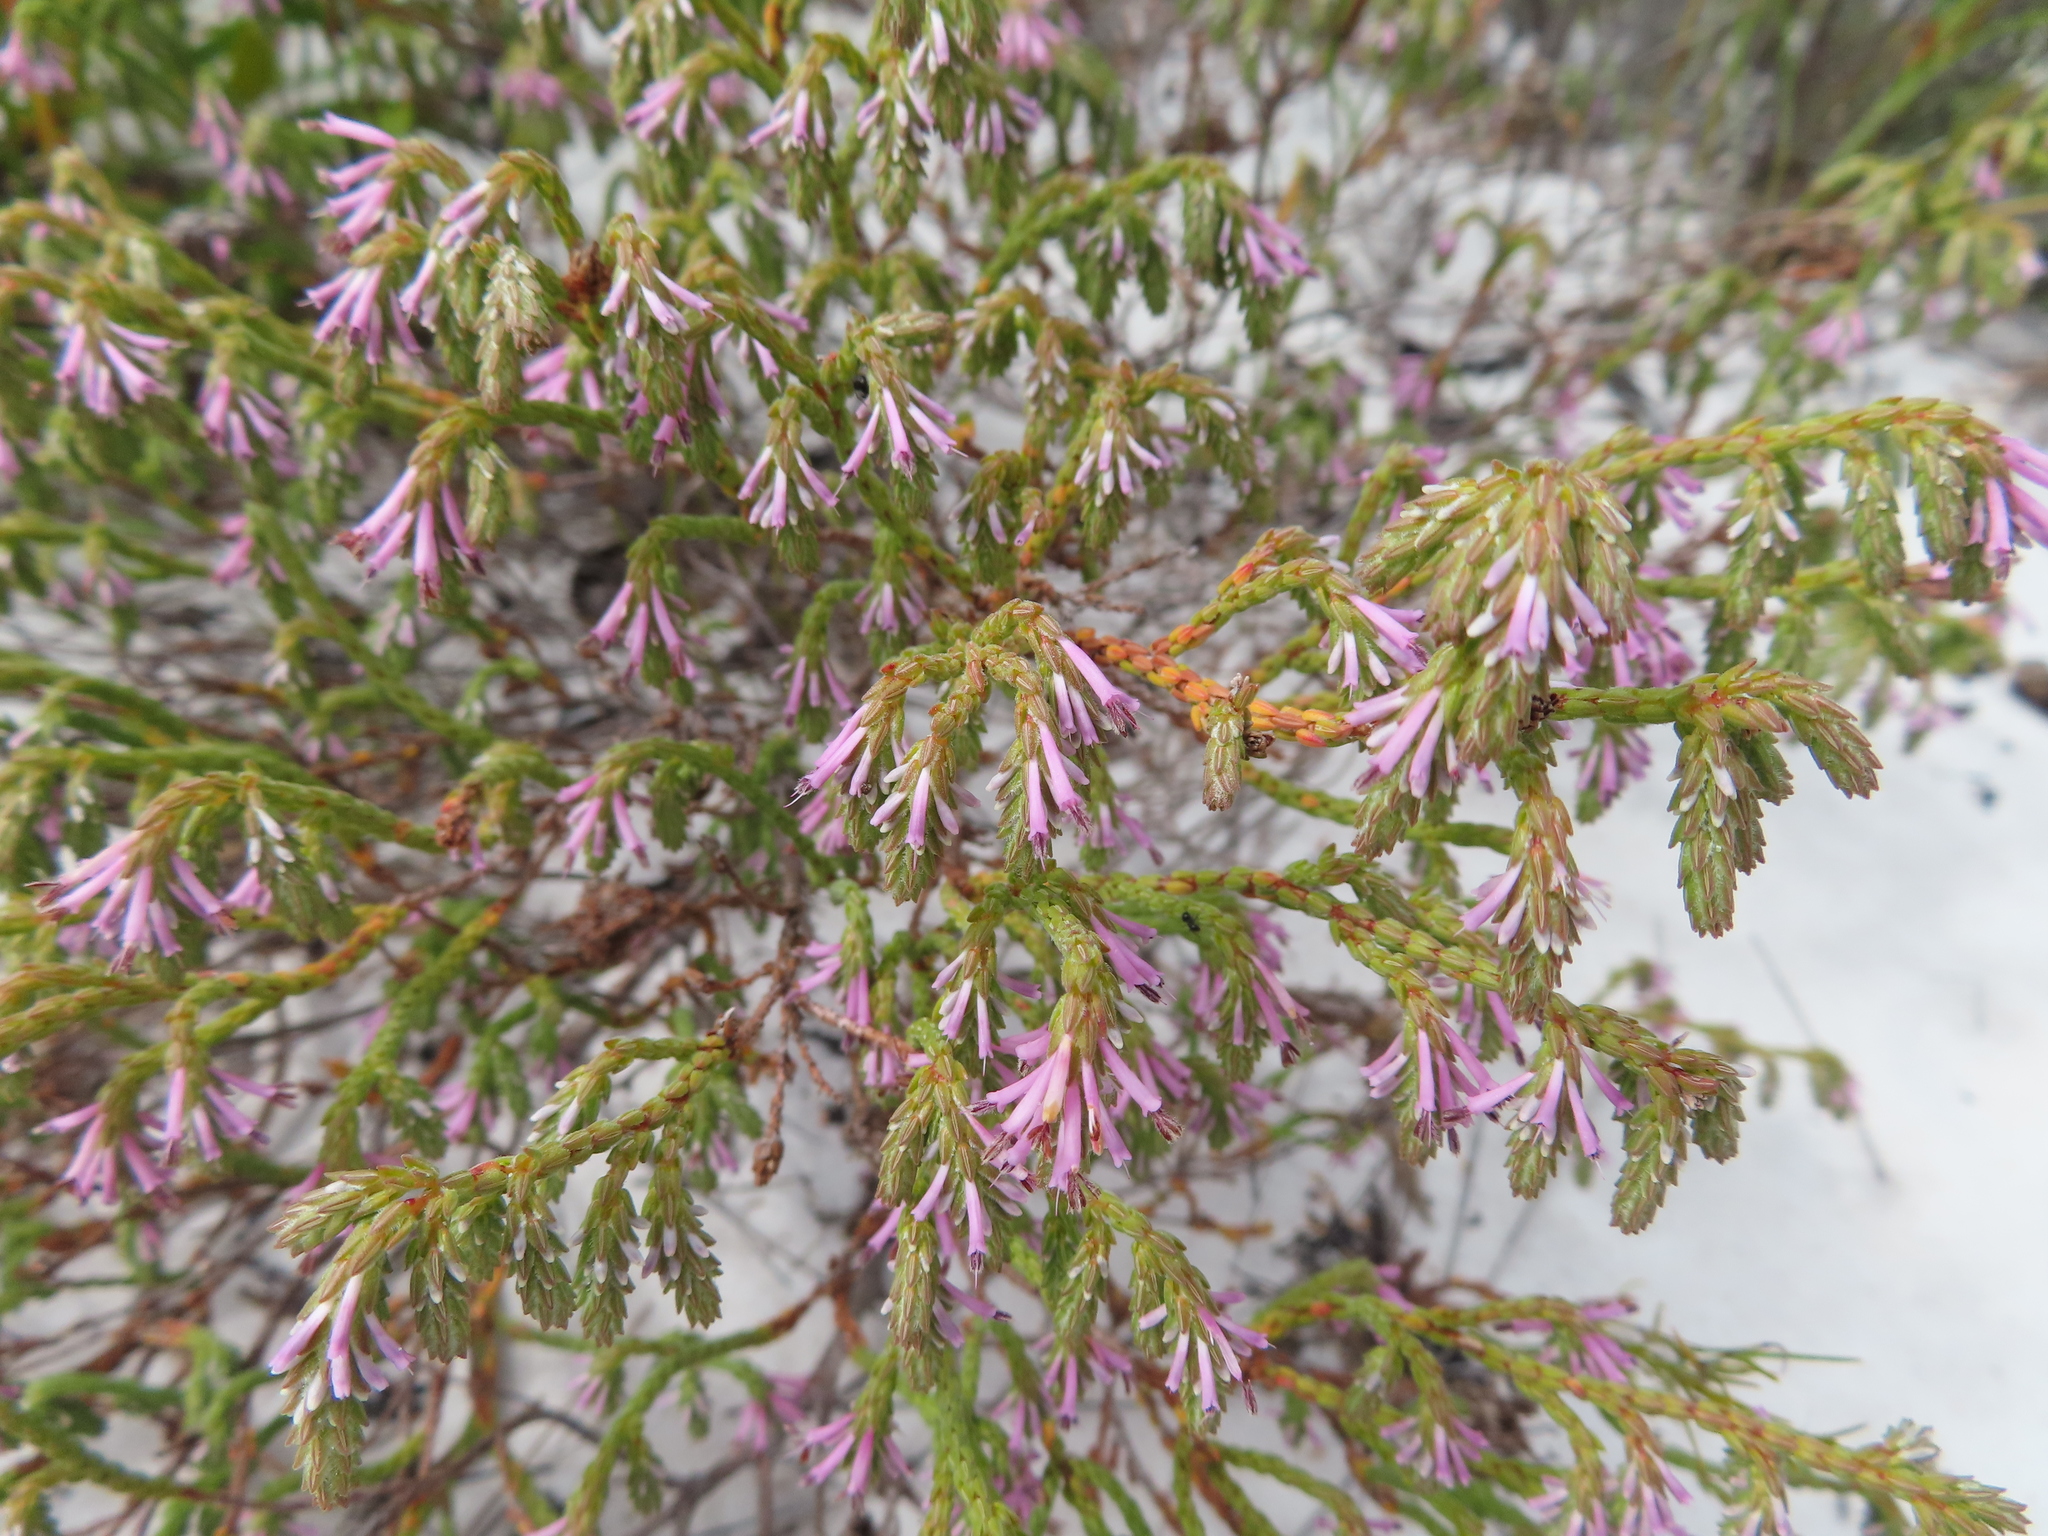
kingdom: Plantae
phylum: Tracheophyta
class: Magnoliopsida
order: Ericales
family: Ericaceae
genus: Erica
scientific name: Erica innovans
